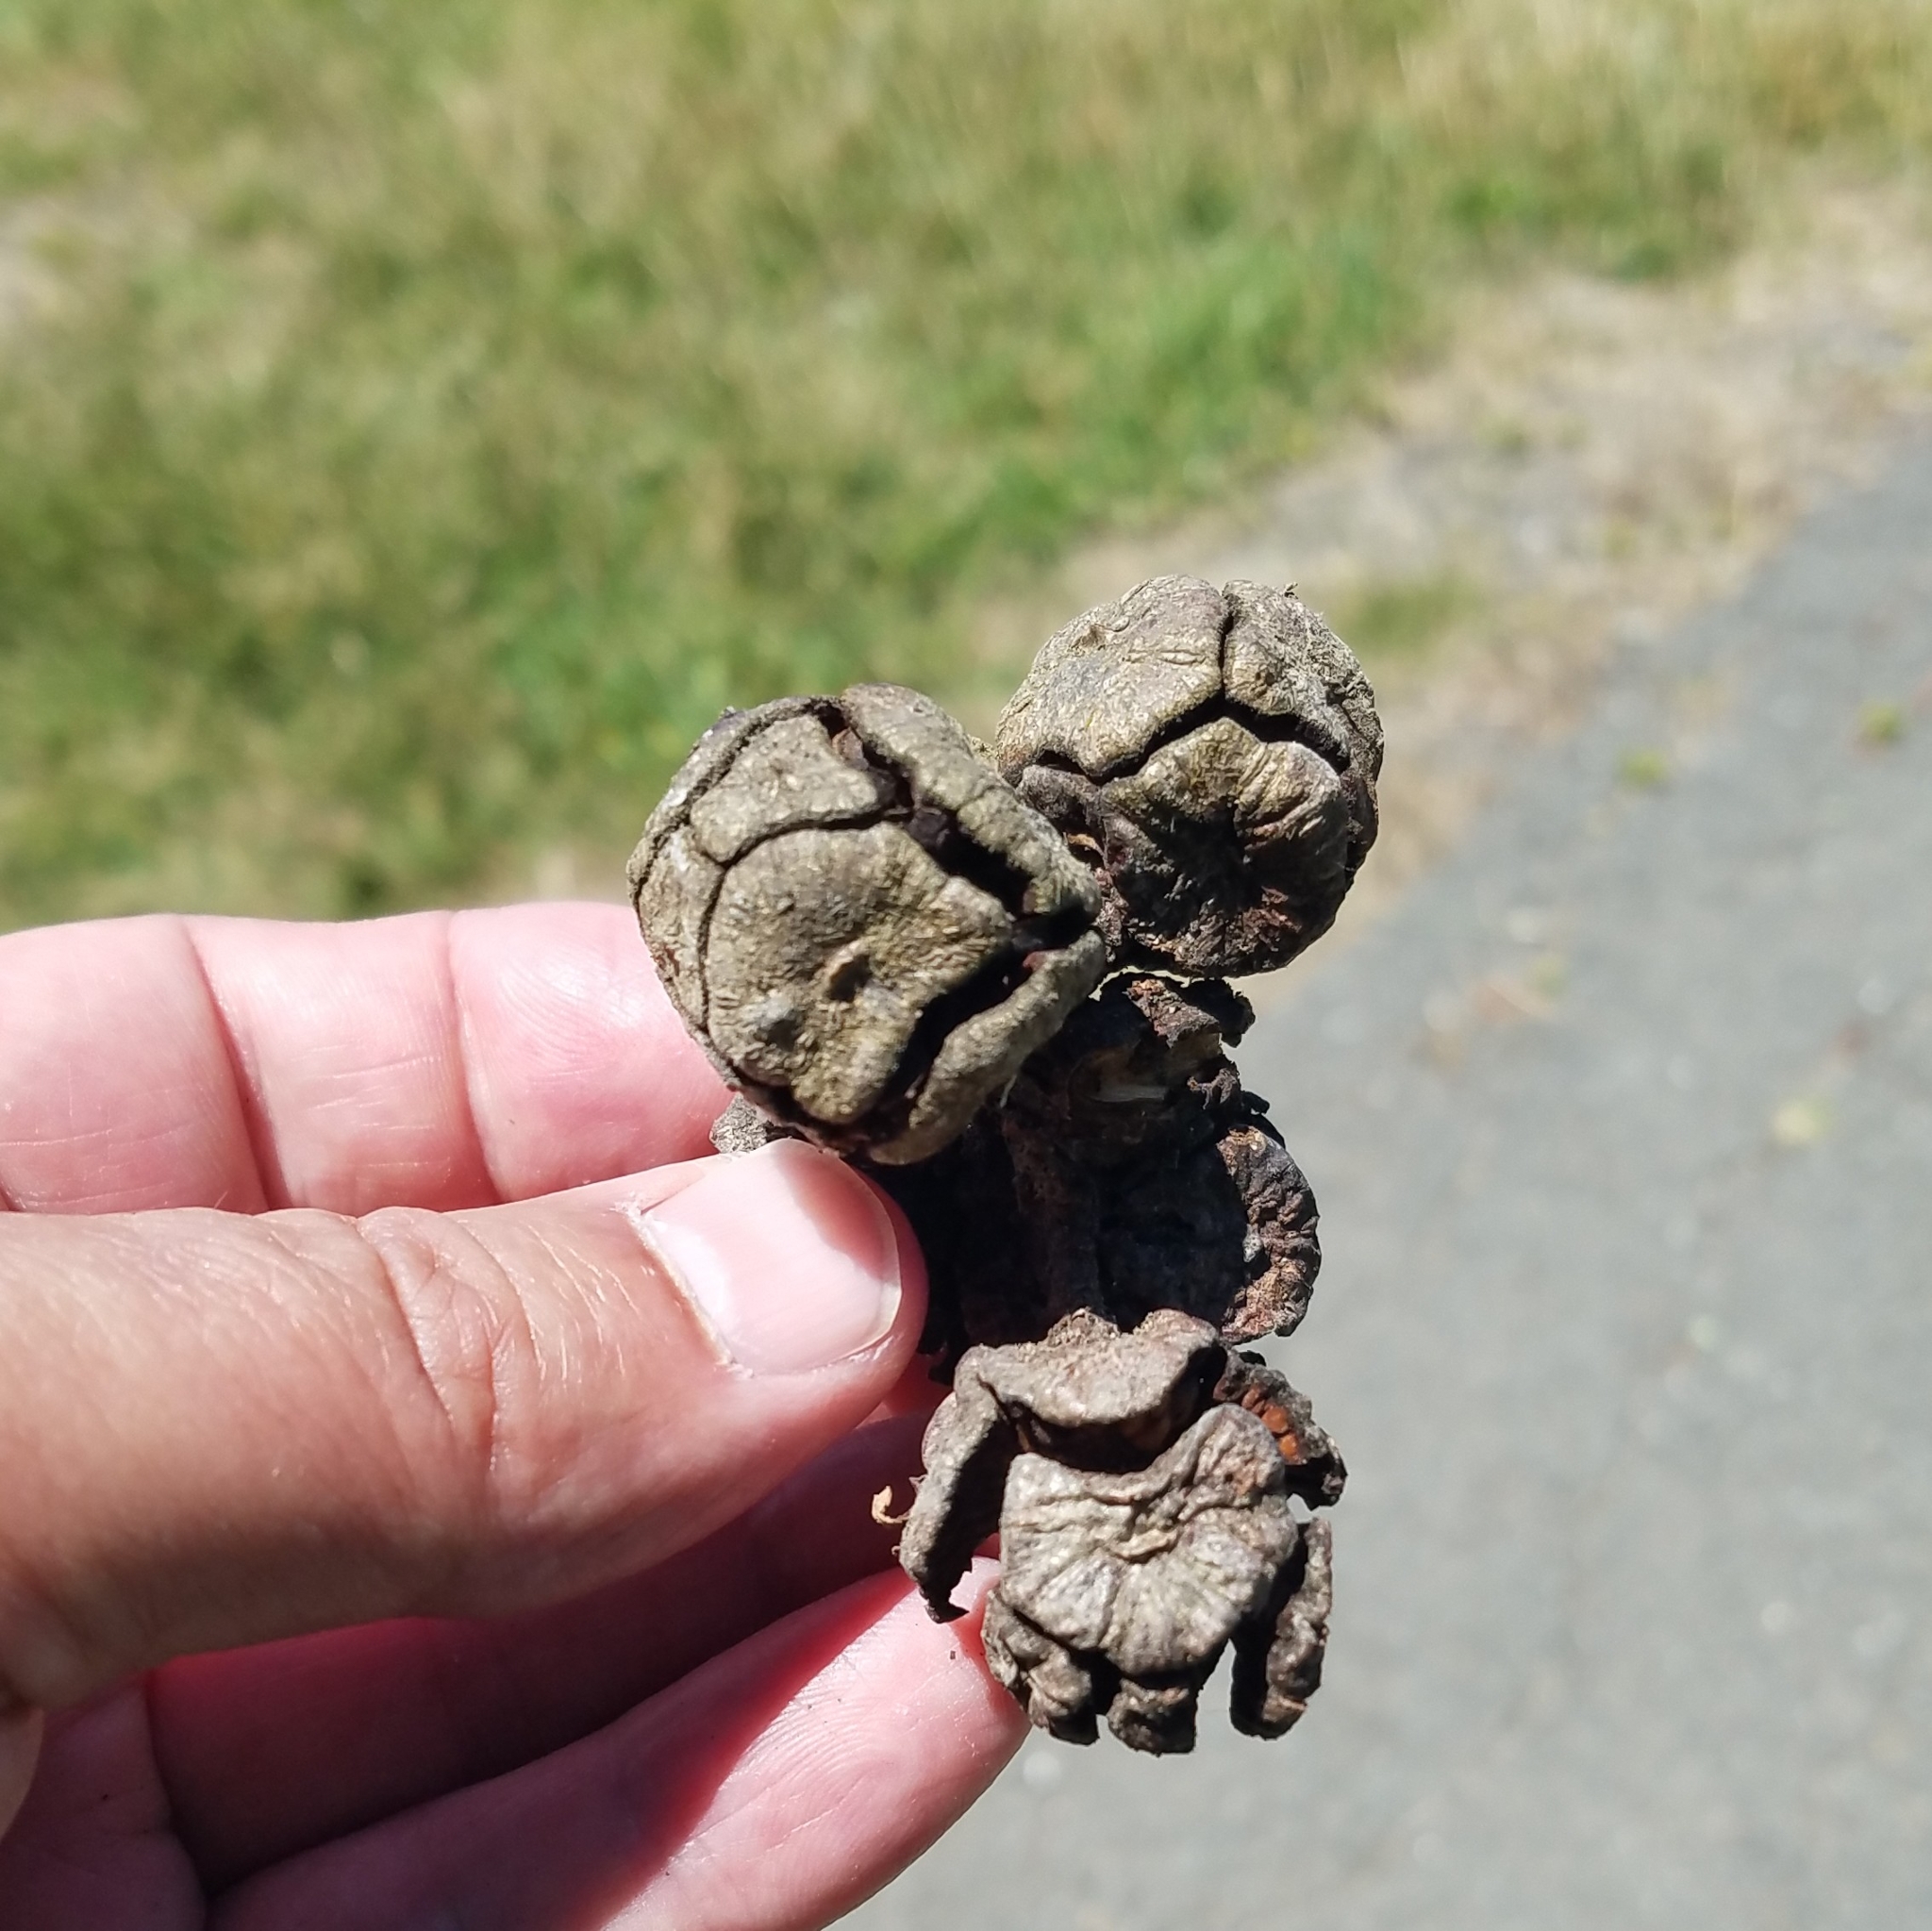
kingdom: Plantae
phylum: Tracheophyta
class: Pinopsida
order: Pinales
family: Cupressaceae
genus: Cupressus
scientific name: Cupressus macrocarpa
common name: Monterey cypress
